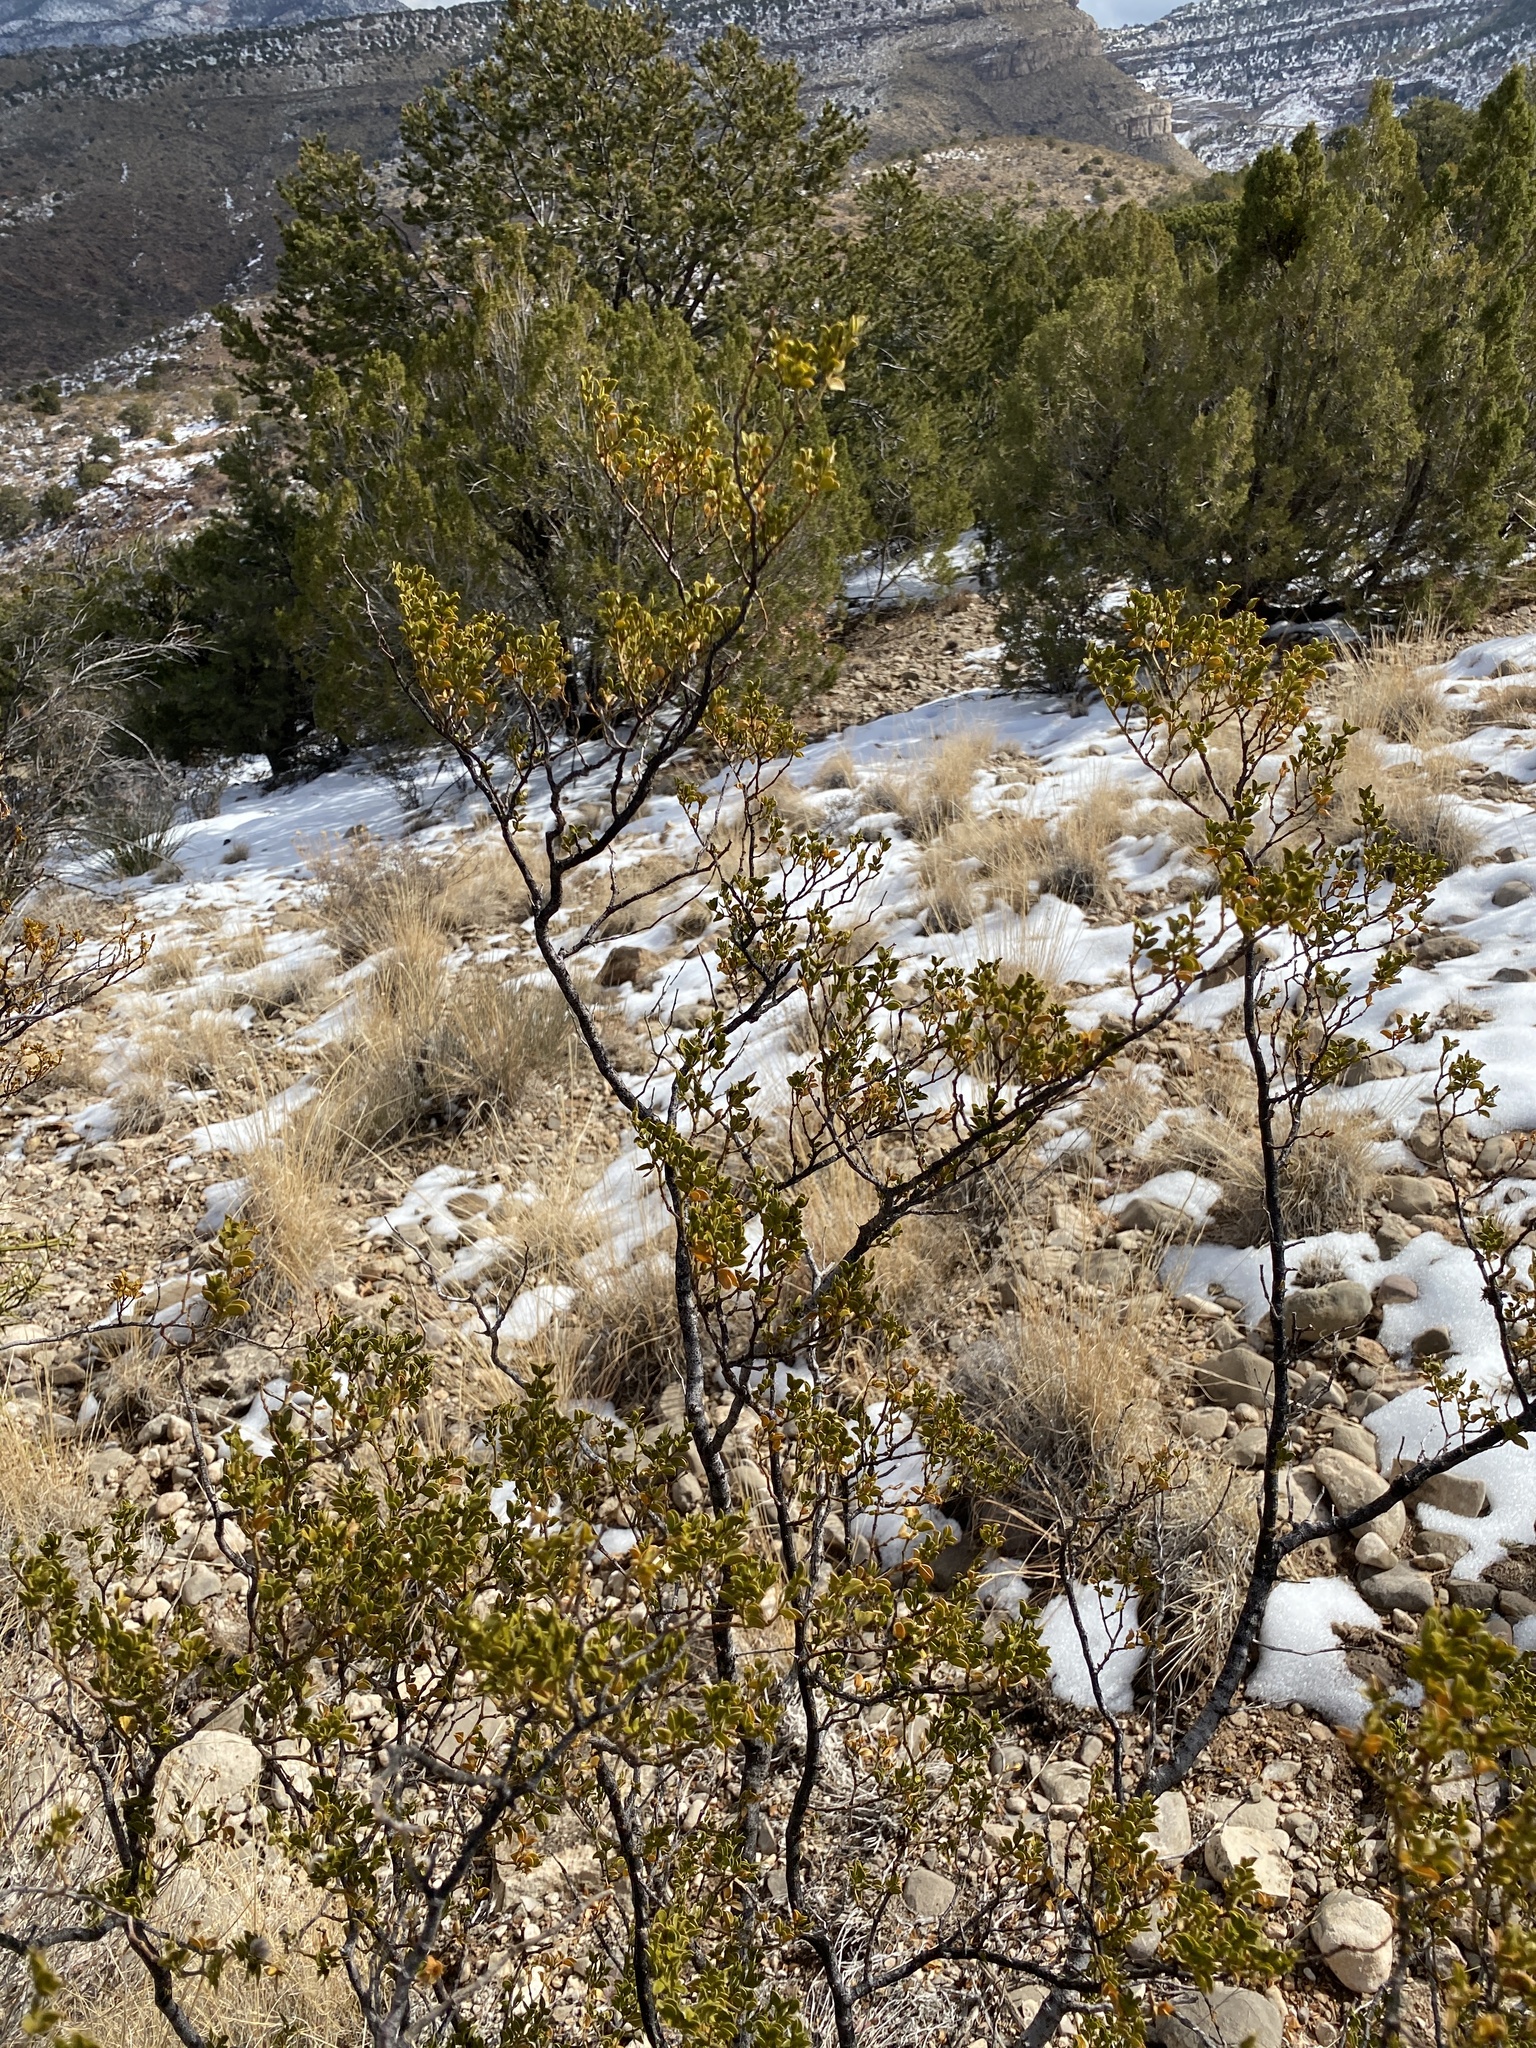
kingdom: Plantae
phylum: Tracheophyta
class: Magnoliopsida
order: Zygophyllales
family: Zygophyllaceae
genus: Larrea
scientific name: Larrea tridentata
